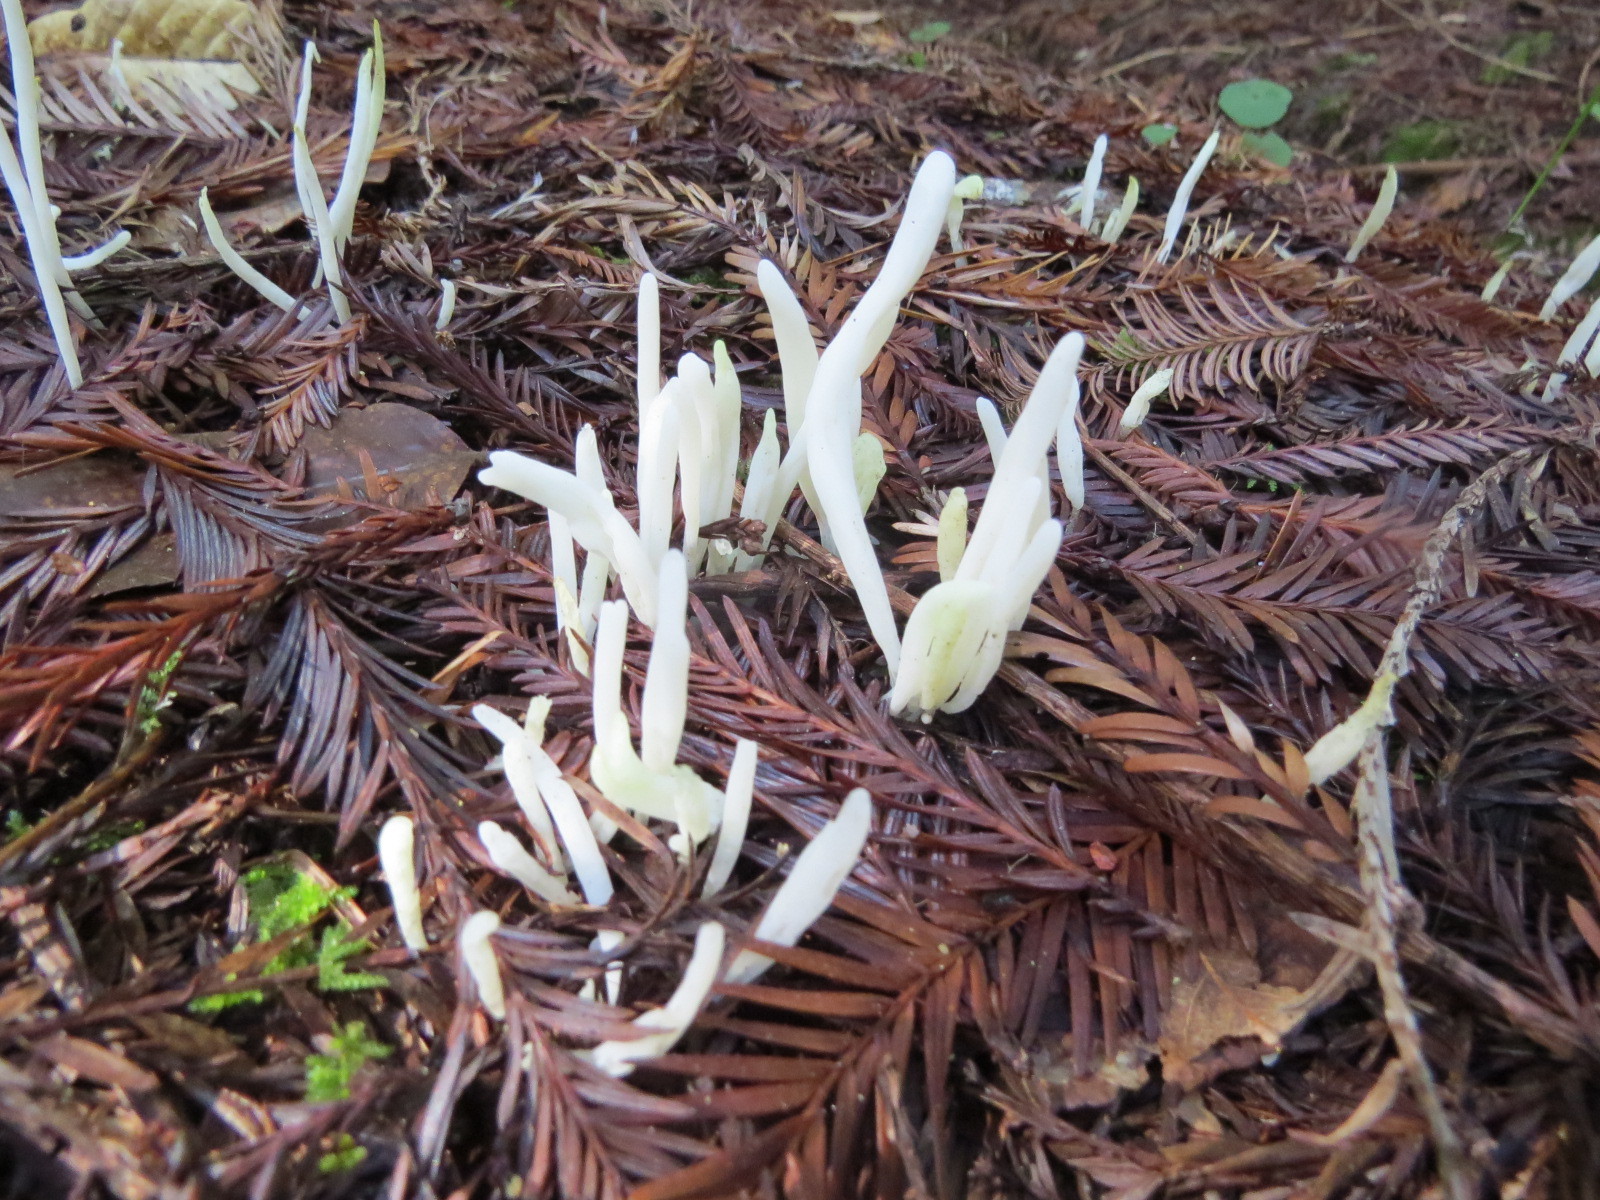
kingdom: Fungi
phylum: Basidiomycota
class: Agaricomycetes
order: Agaricales
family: Clavariaceae
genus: Clavaria
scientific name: Clavaria fragilis
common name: White spindles
